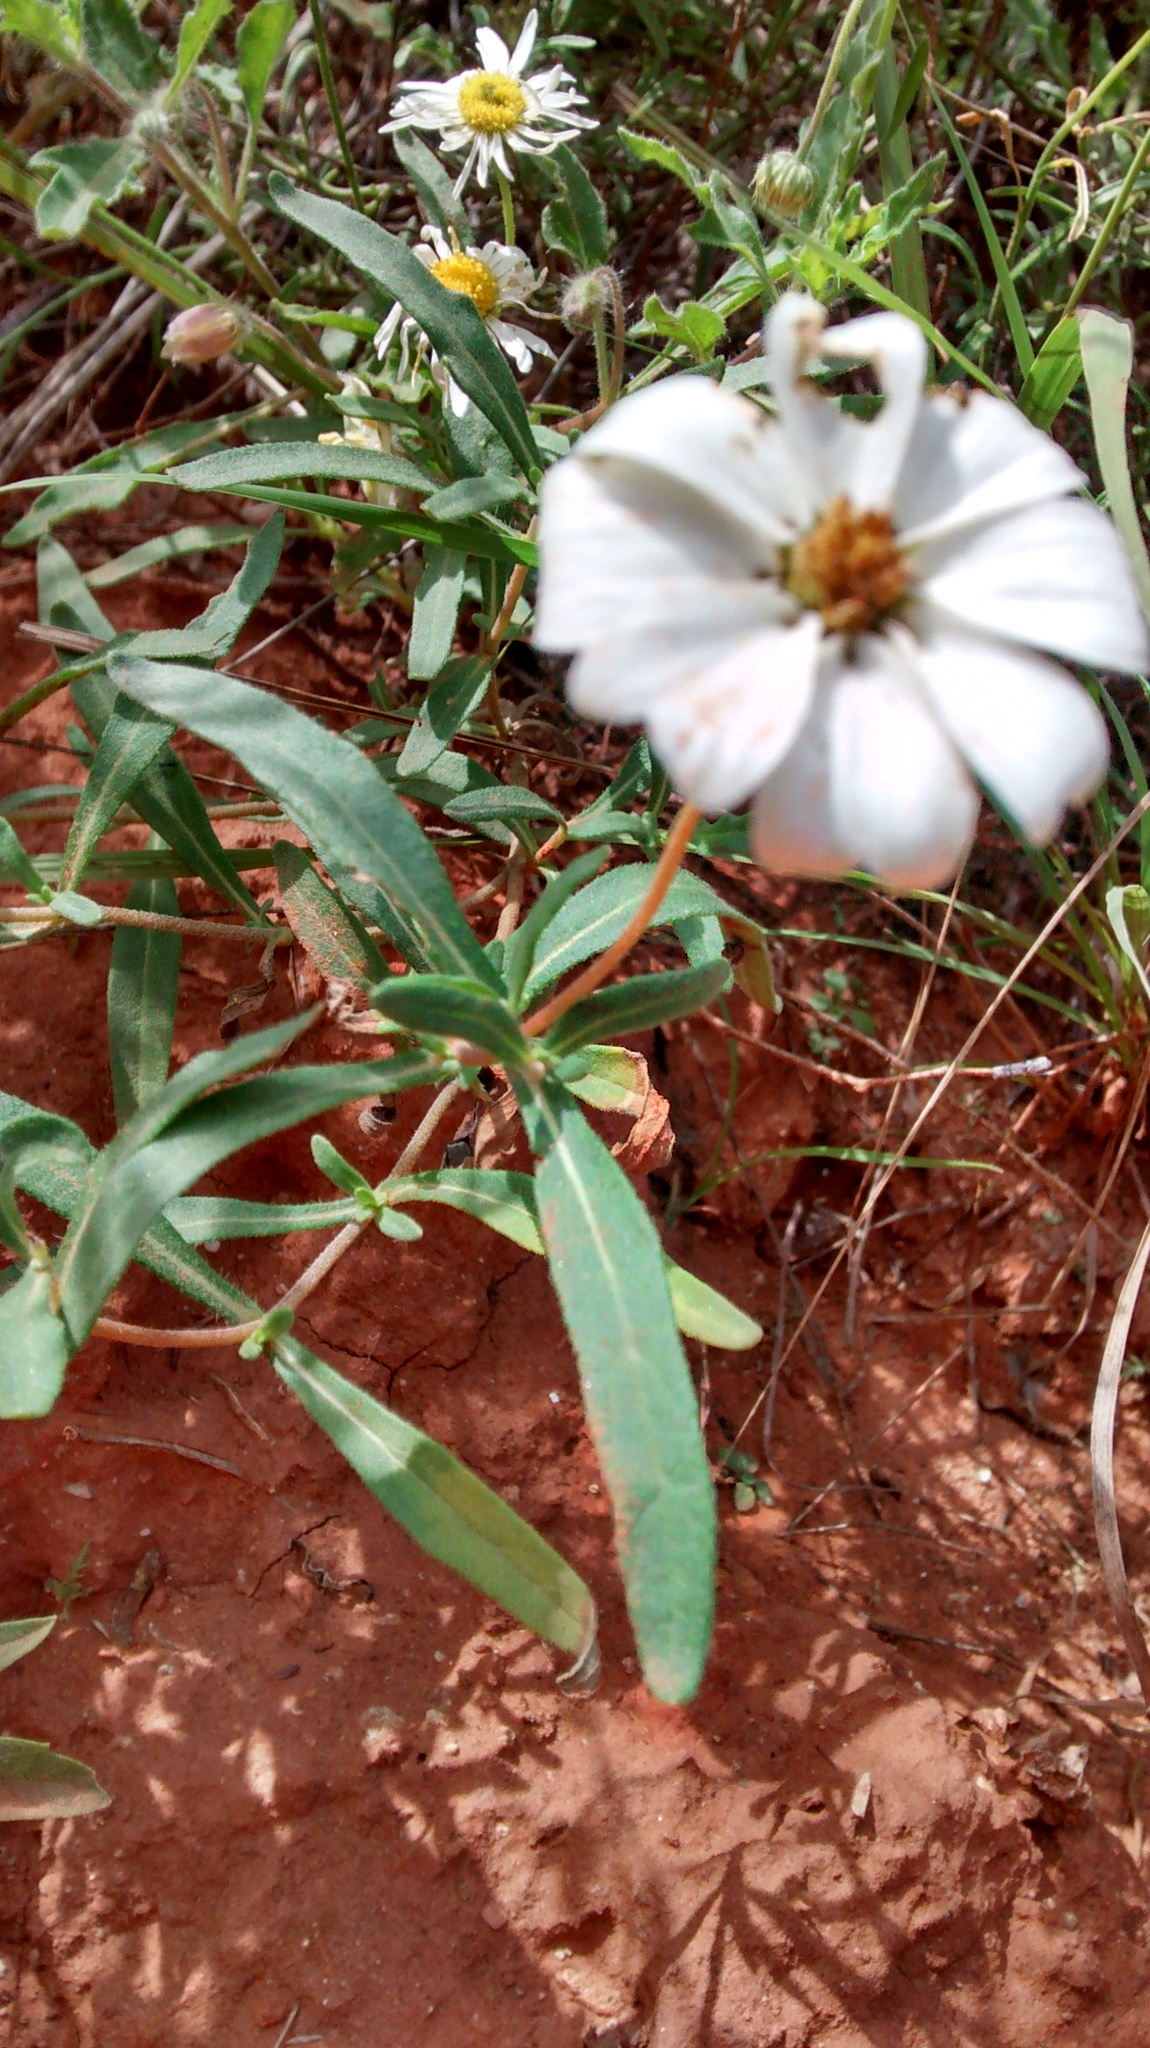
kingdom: Plantae
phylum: Tracheophyta
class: Magnoliopsida
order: Asterales
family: Asteraceae
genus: Melampodium
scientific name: Melampodium leucanthum
